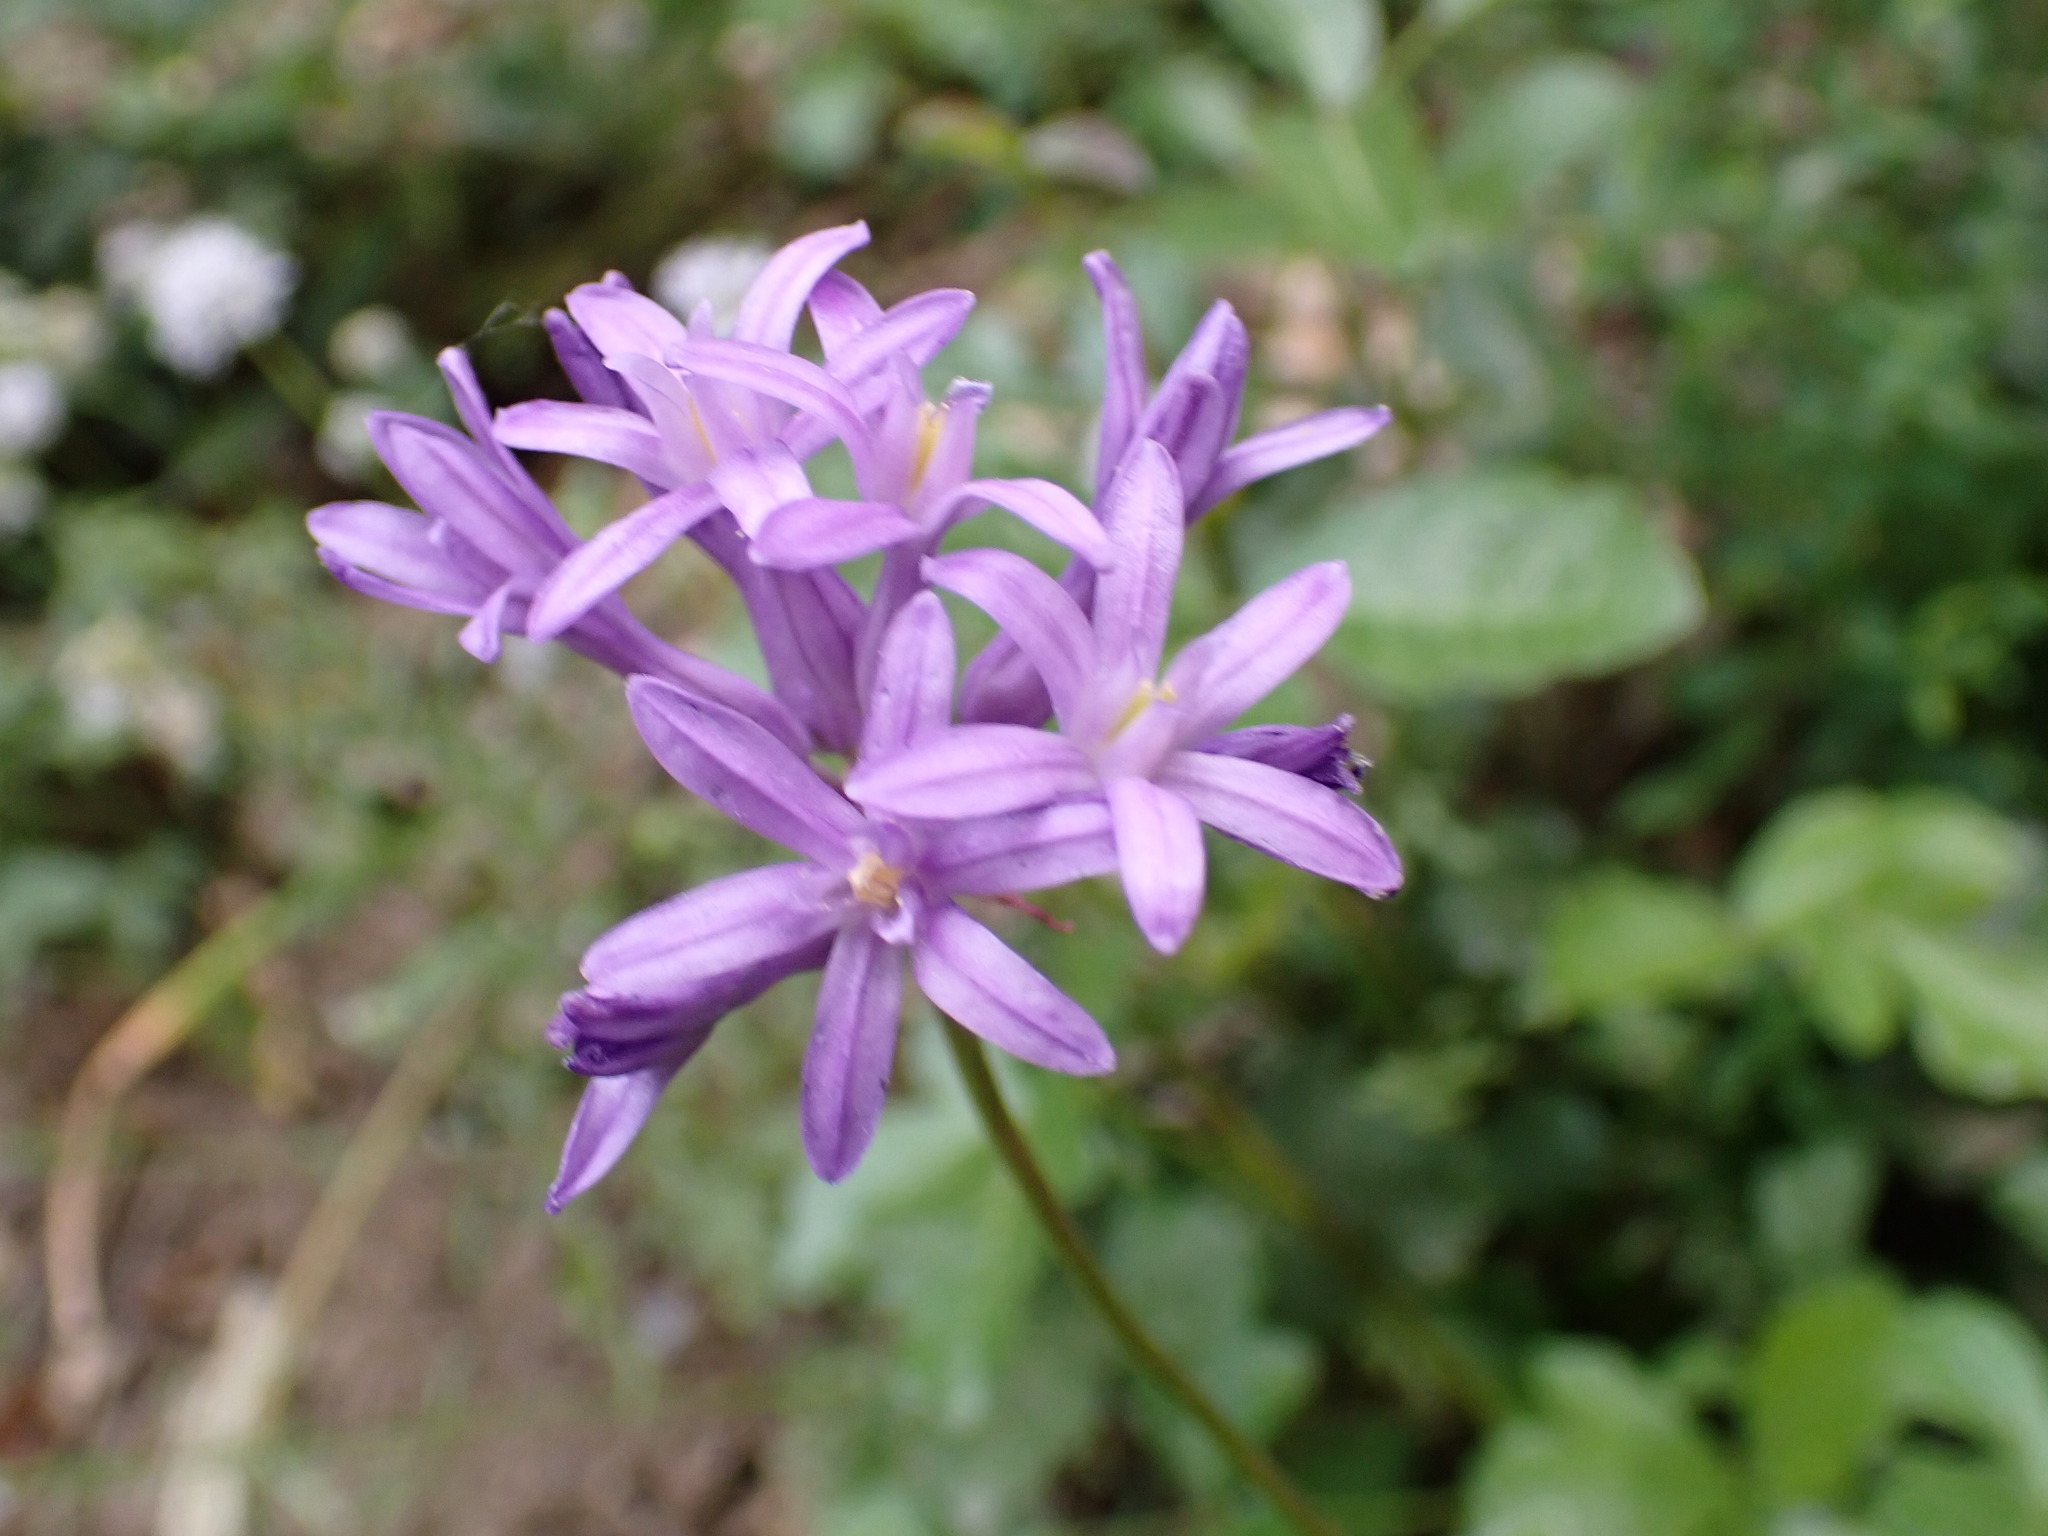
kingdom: Plantae
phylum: Tracheophyta
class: Liliopsida
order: Asparagales
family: Asparagaceae
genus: Dichelostemma
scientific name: Dichelostemma multiflorum
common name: Round-tooth ookow
